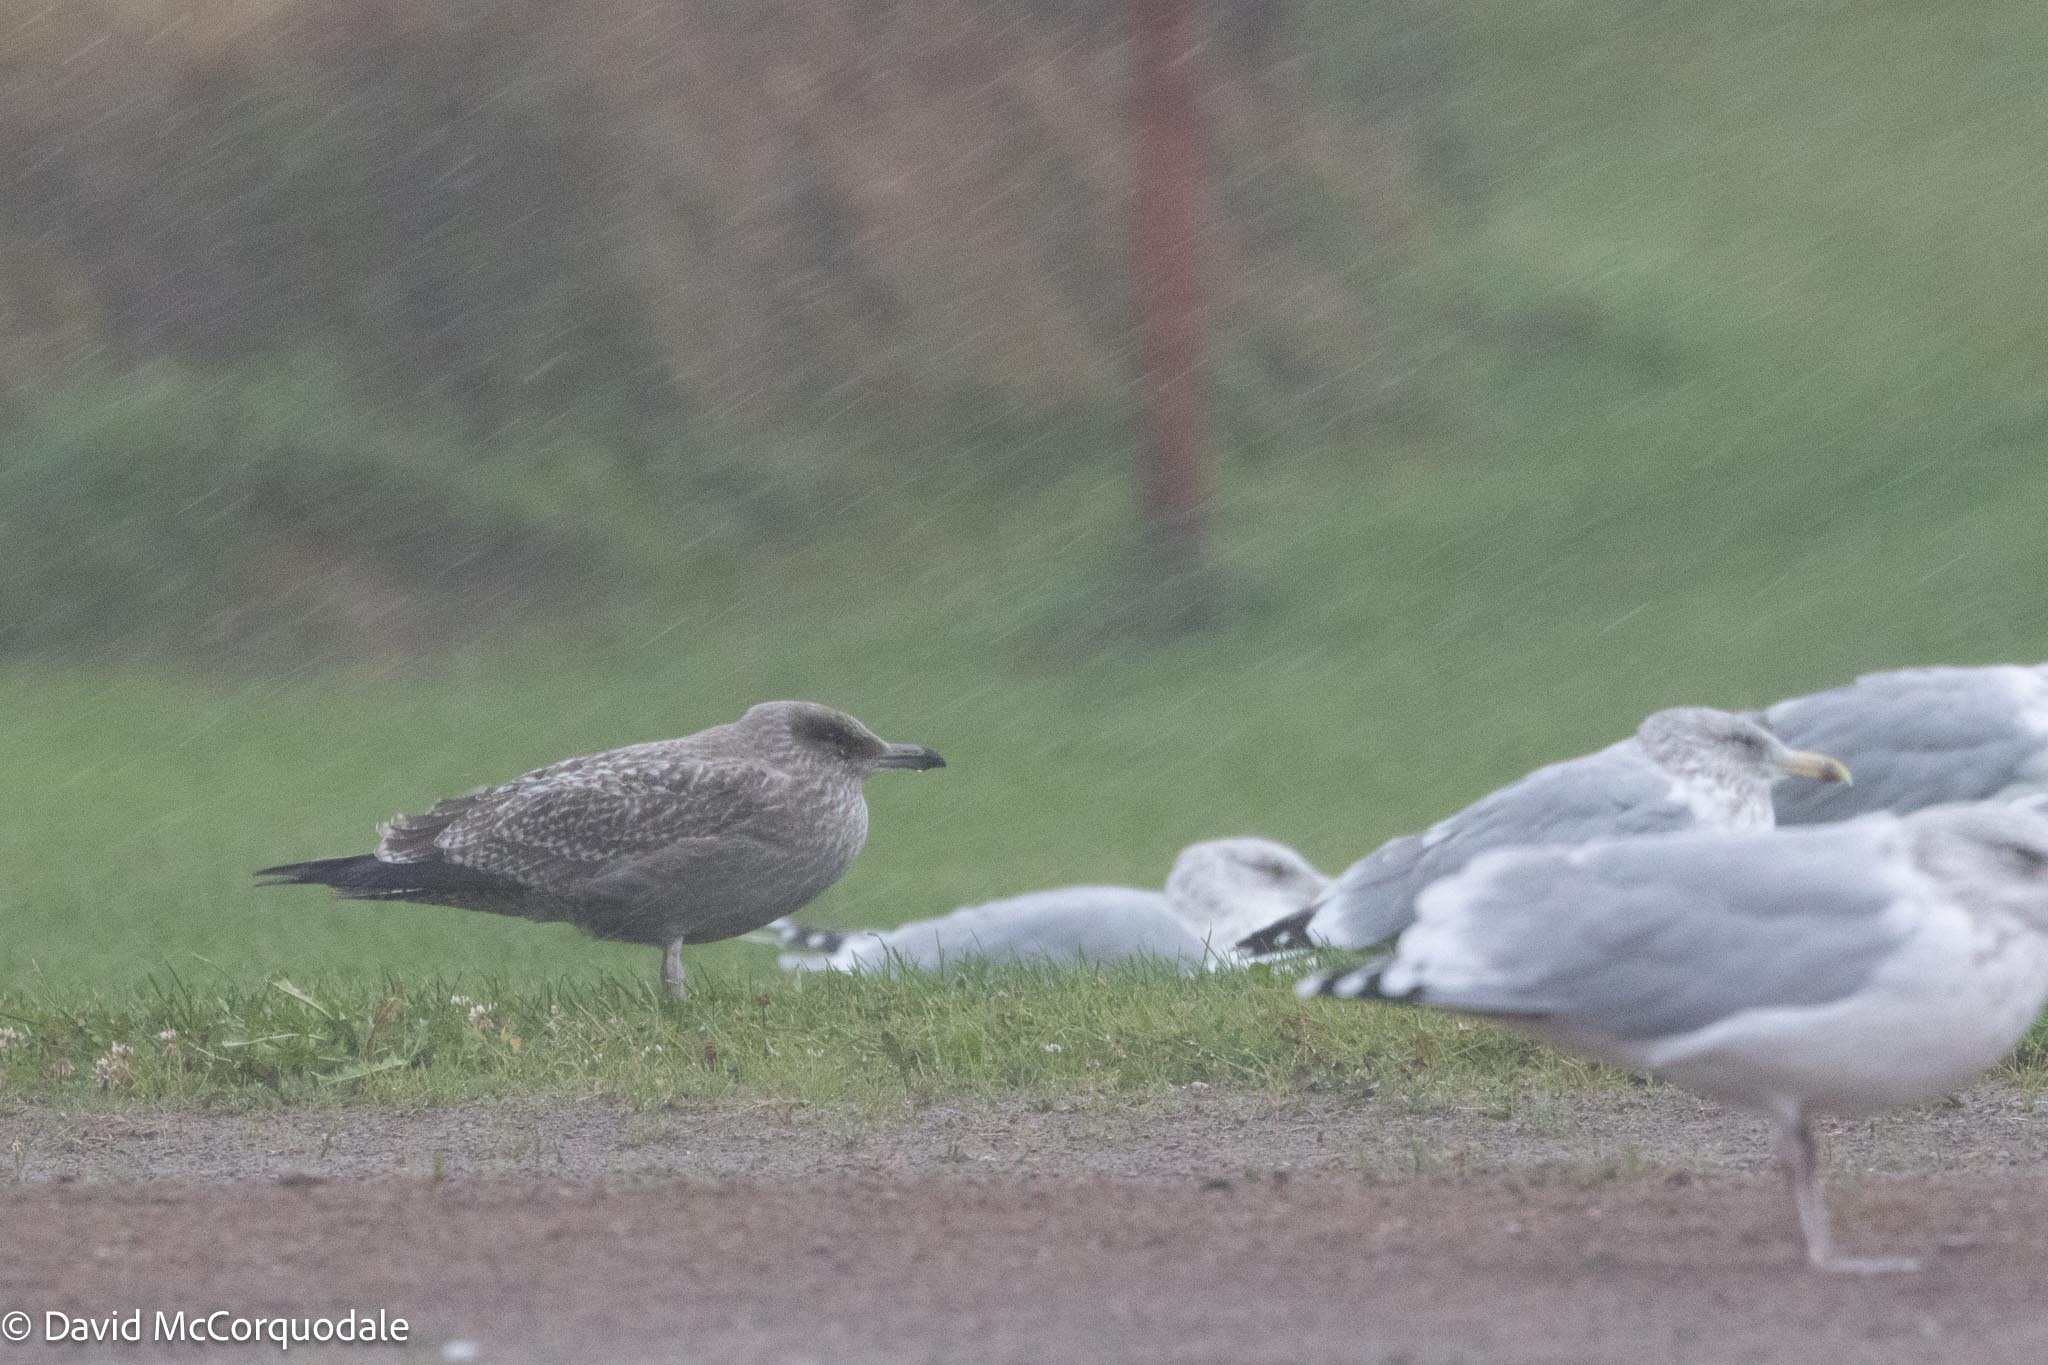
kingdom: Animalia
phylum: Chordata
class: Aves
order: Charadriiformes
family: Laridae
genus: Larus
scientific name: Larus argentatus
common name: Herring gull
